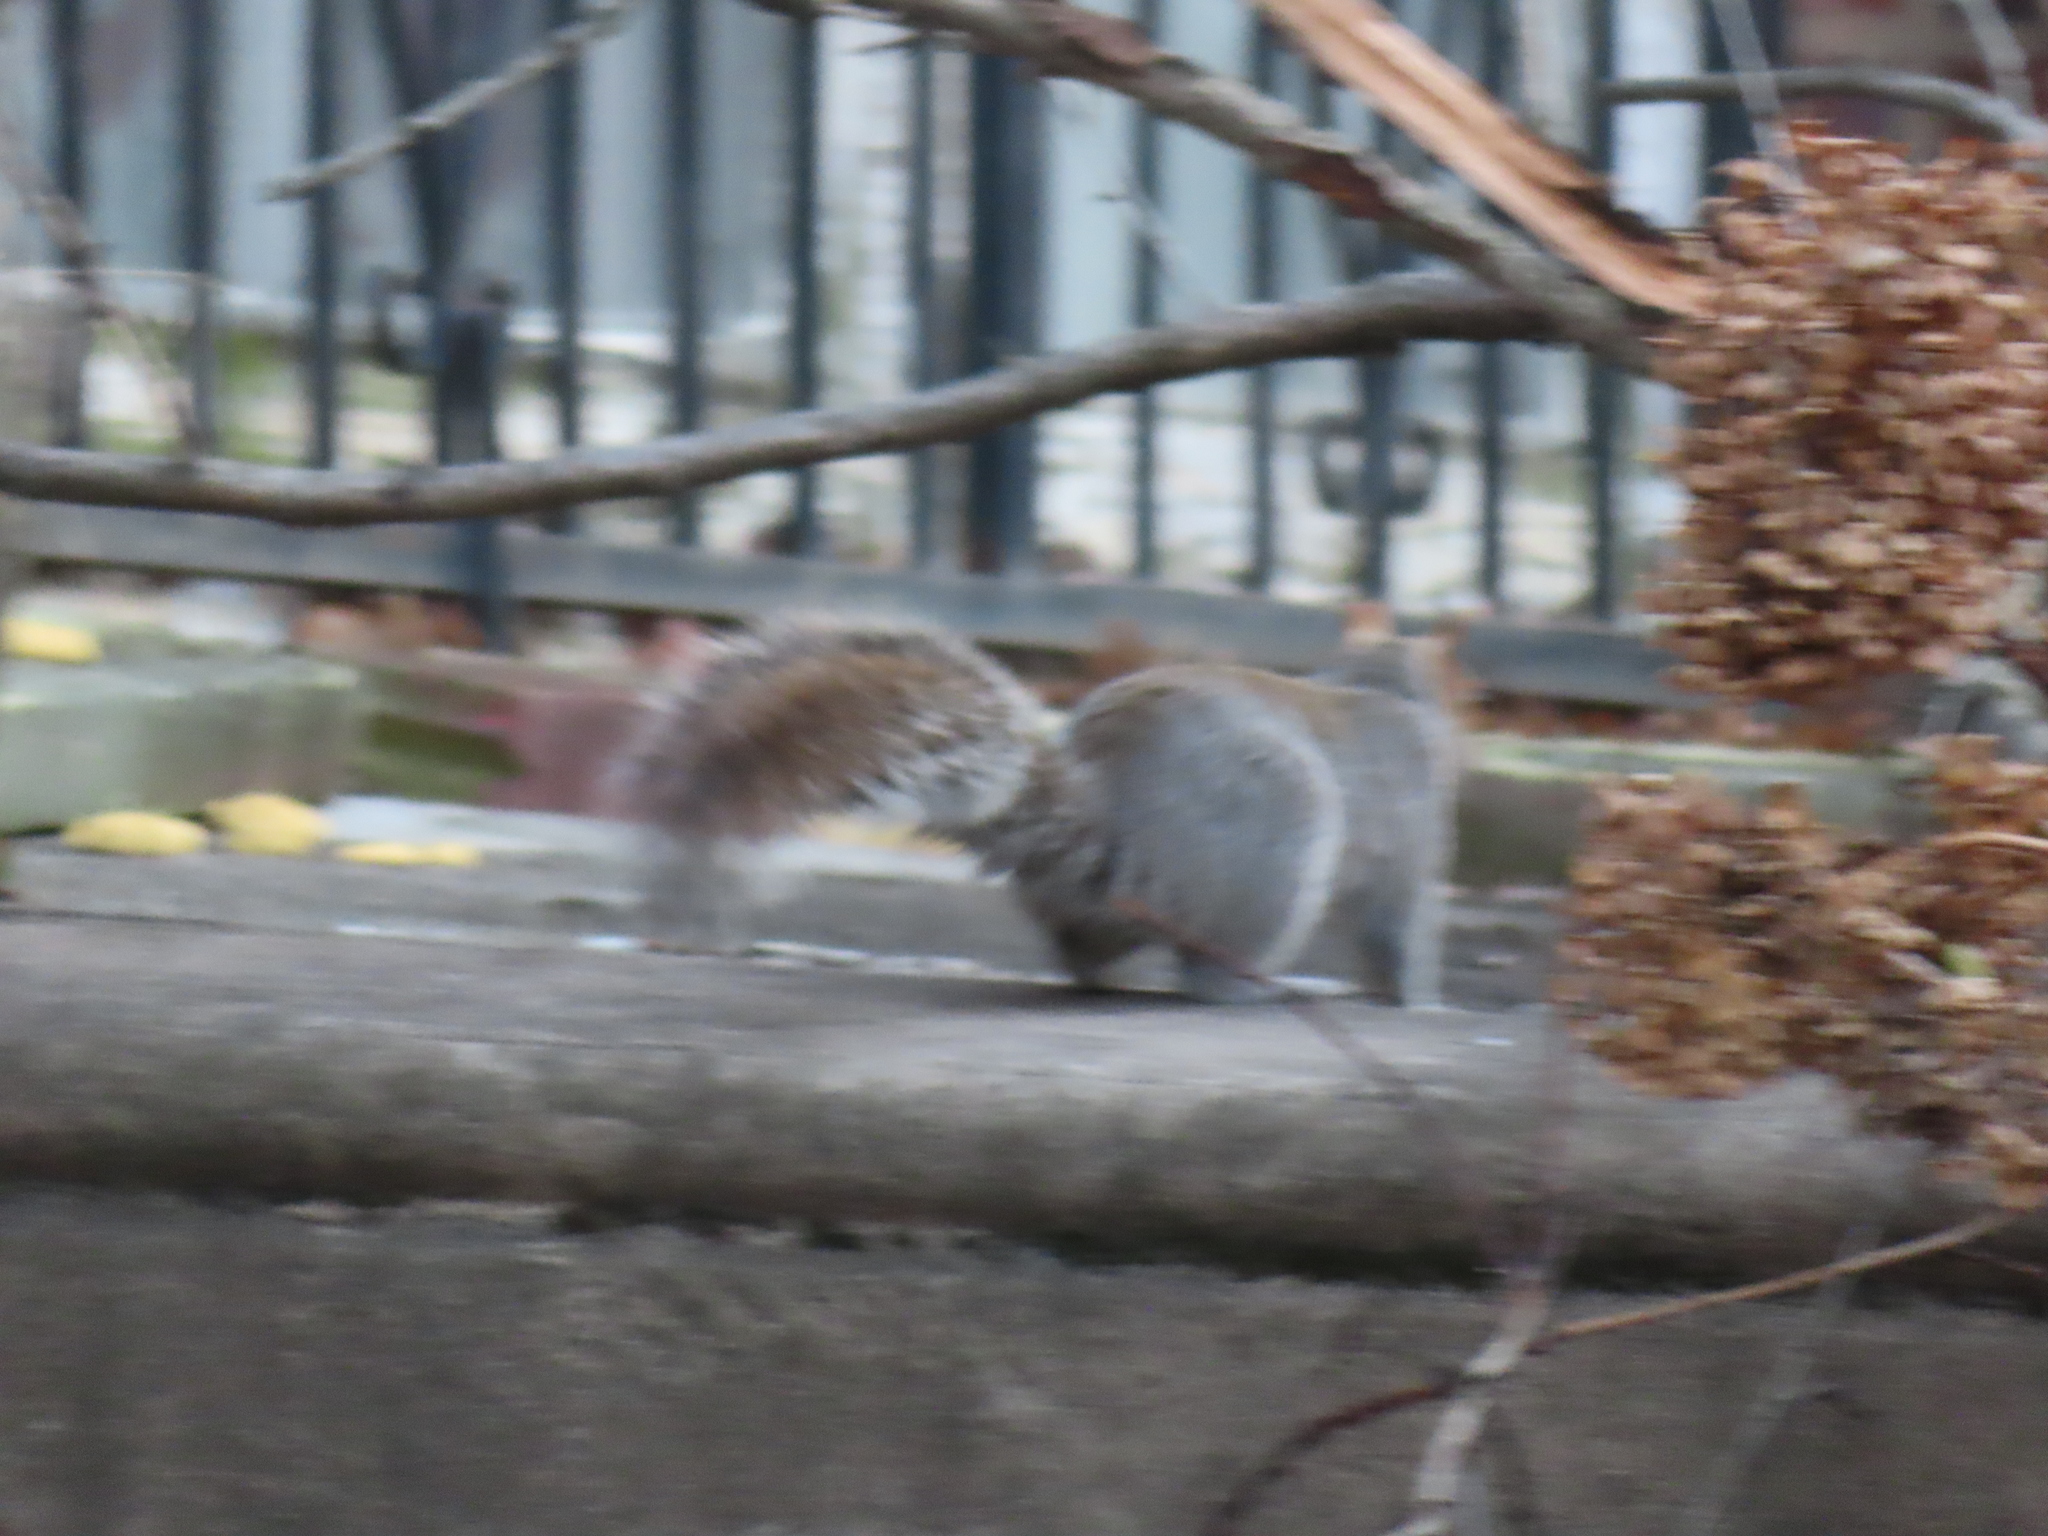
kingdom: Animalia
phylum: Chordata
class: Mammalia
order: Rodentia
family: Sciuridae
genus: Sciurus
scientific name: Sciurus carolinensis
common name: Eastern gray squirrel
